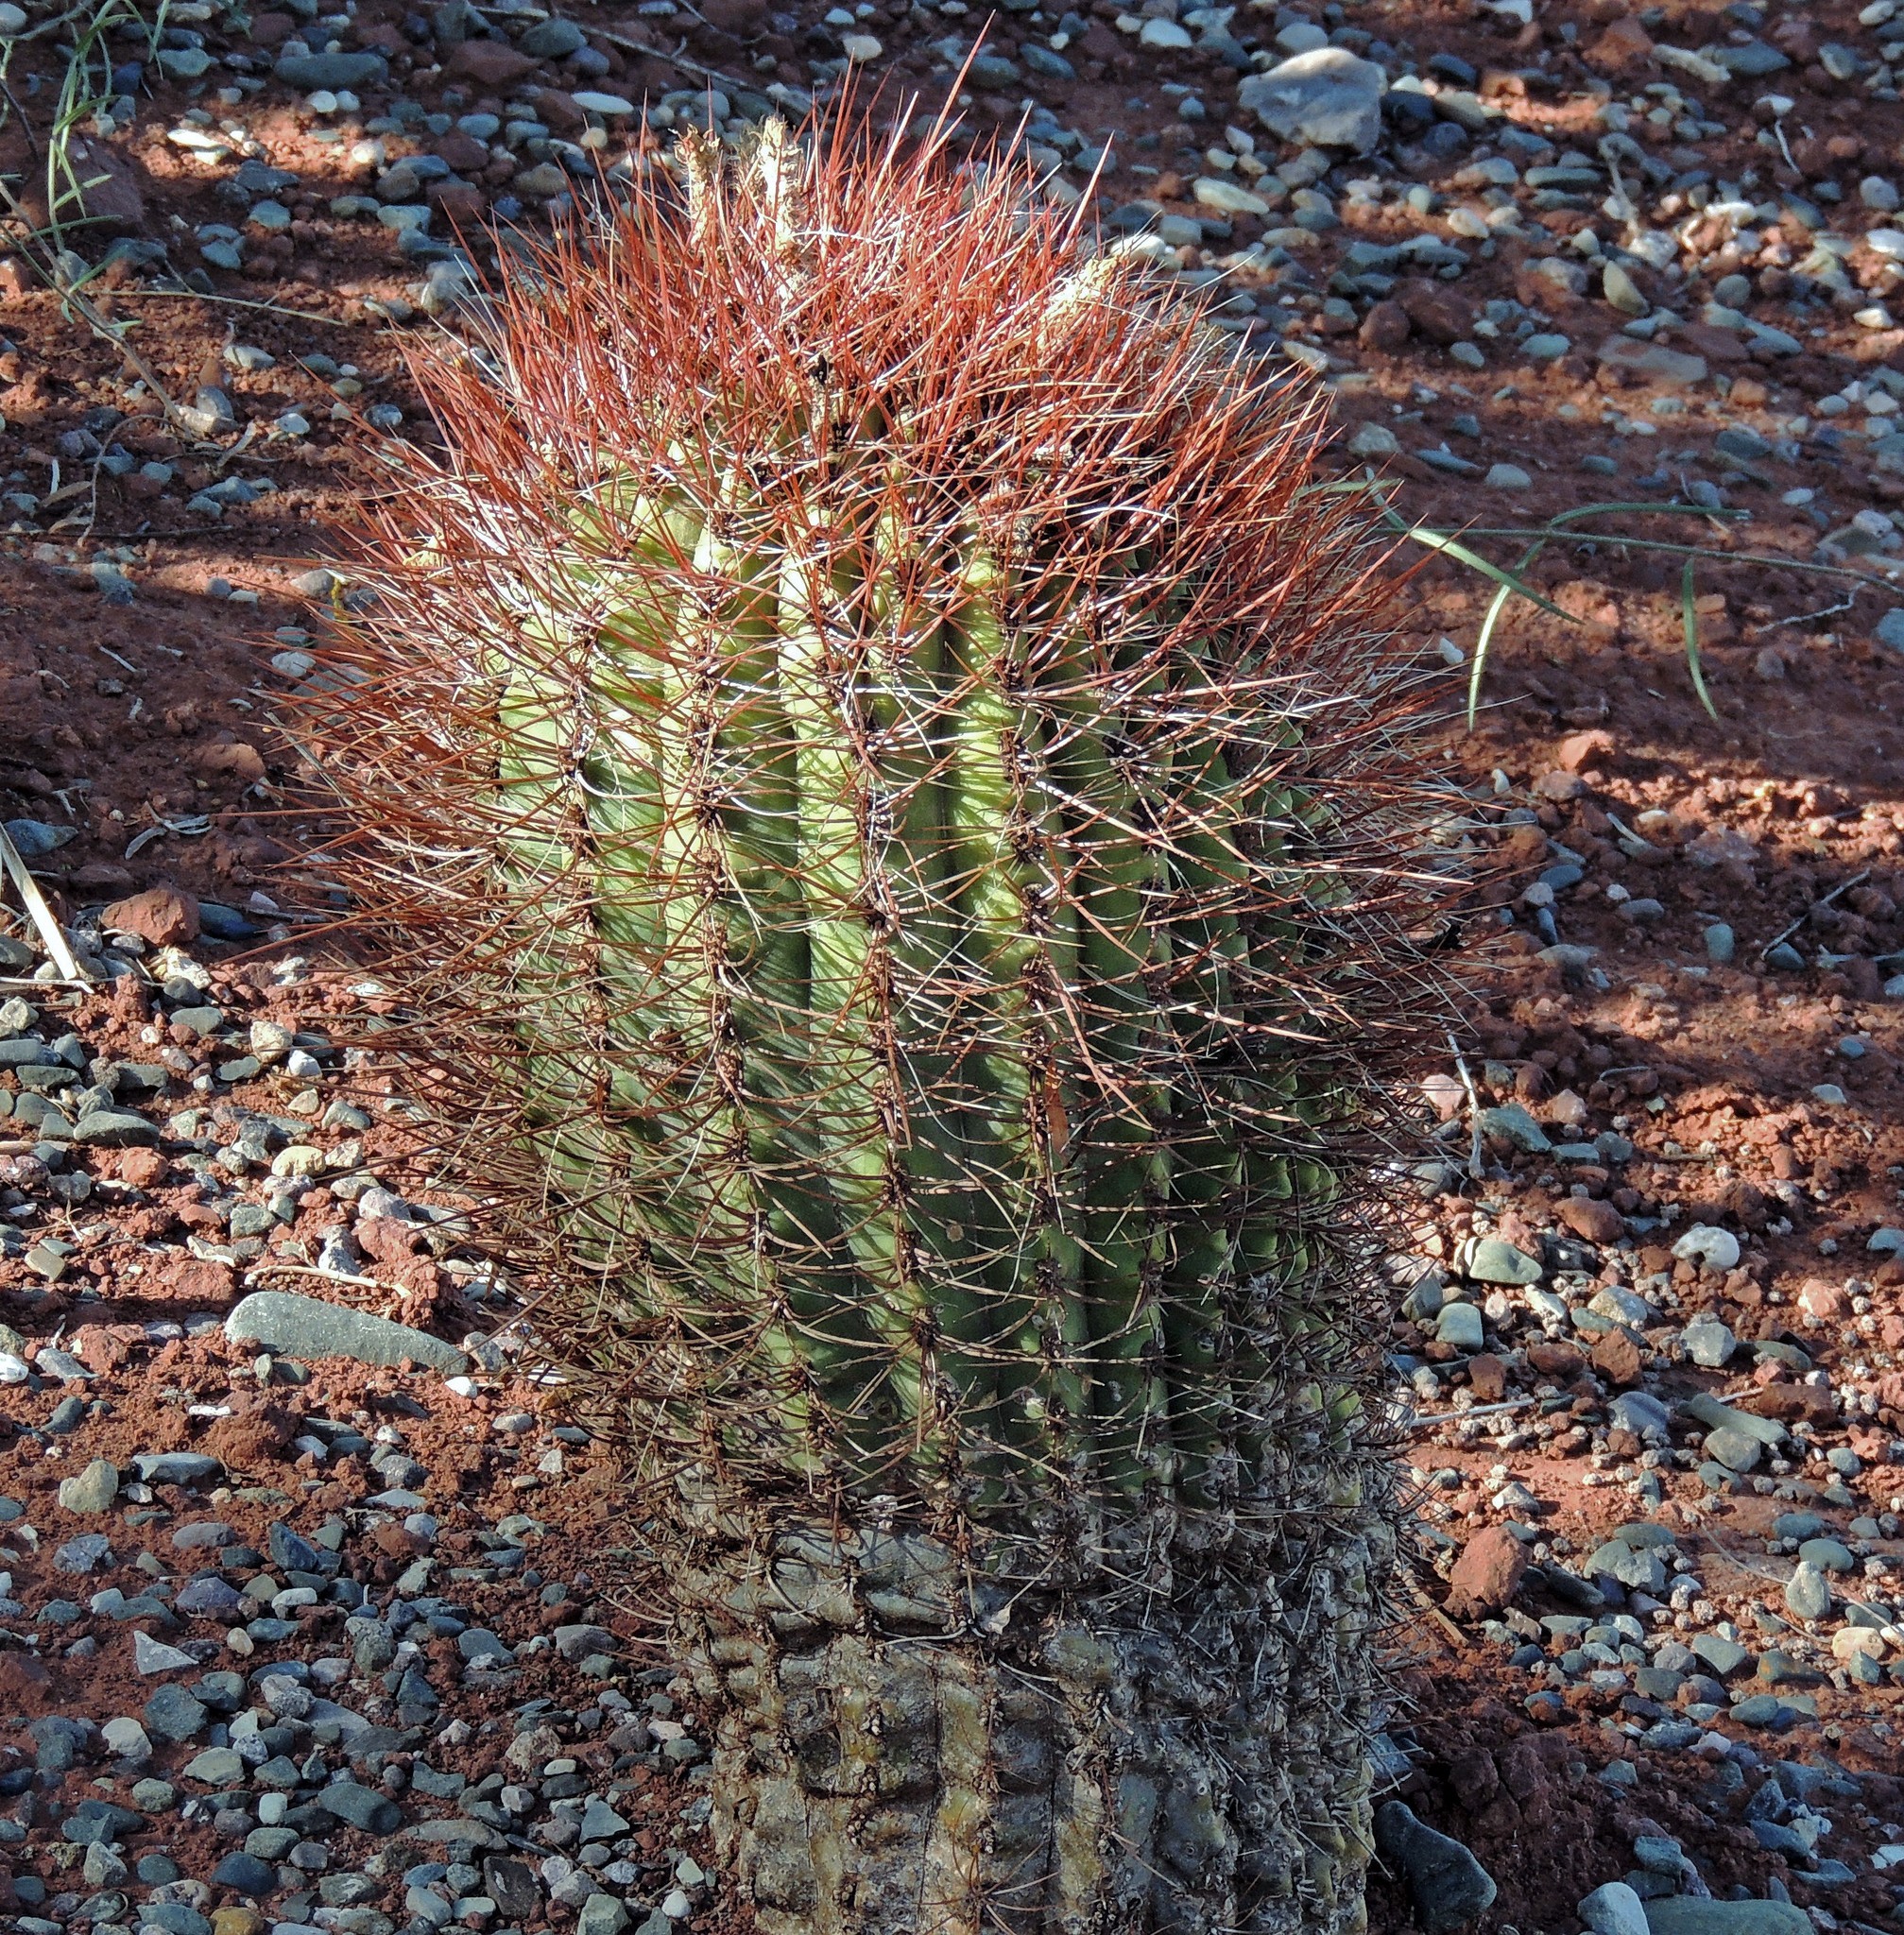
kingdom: Plantae
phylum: Tracheophyta
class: Magnoliopsida
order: Caryophyllales
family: Cactaceae
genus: Denmoza
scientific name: Denmoza rhodacantha
